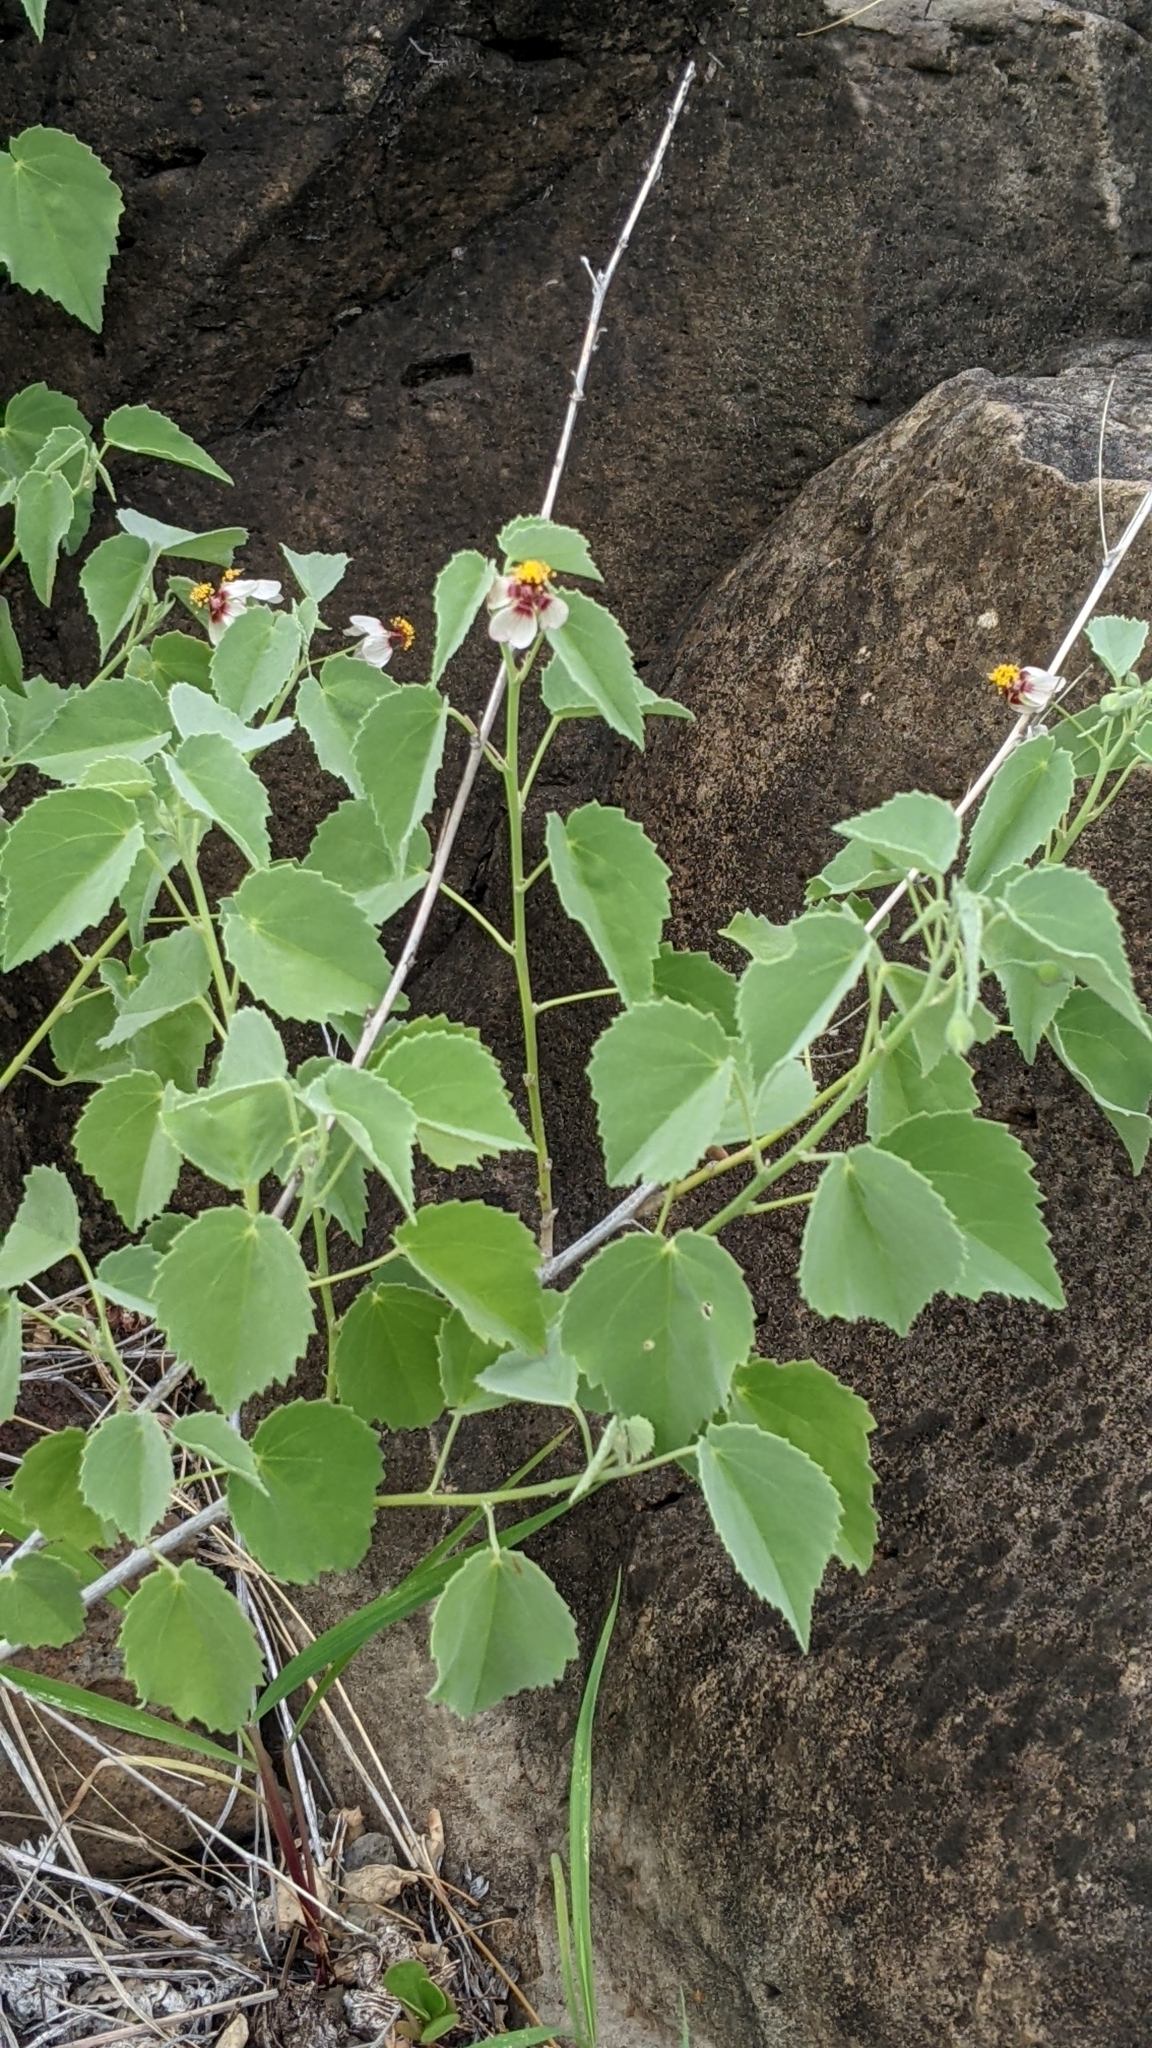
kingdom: Plantae
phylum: Tracheophyta
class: Magnoliopsida
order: Malvales
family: Malvaceae
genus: Abutilon
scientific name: Abutilon incanum
